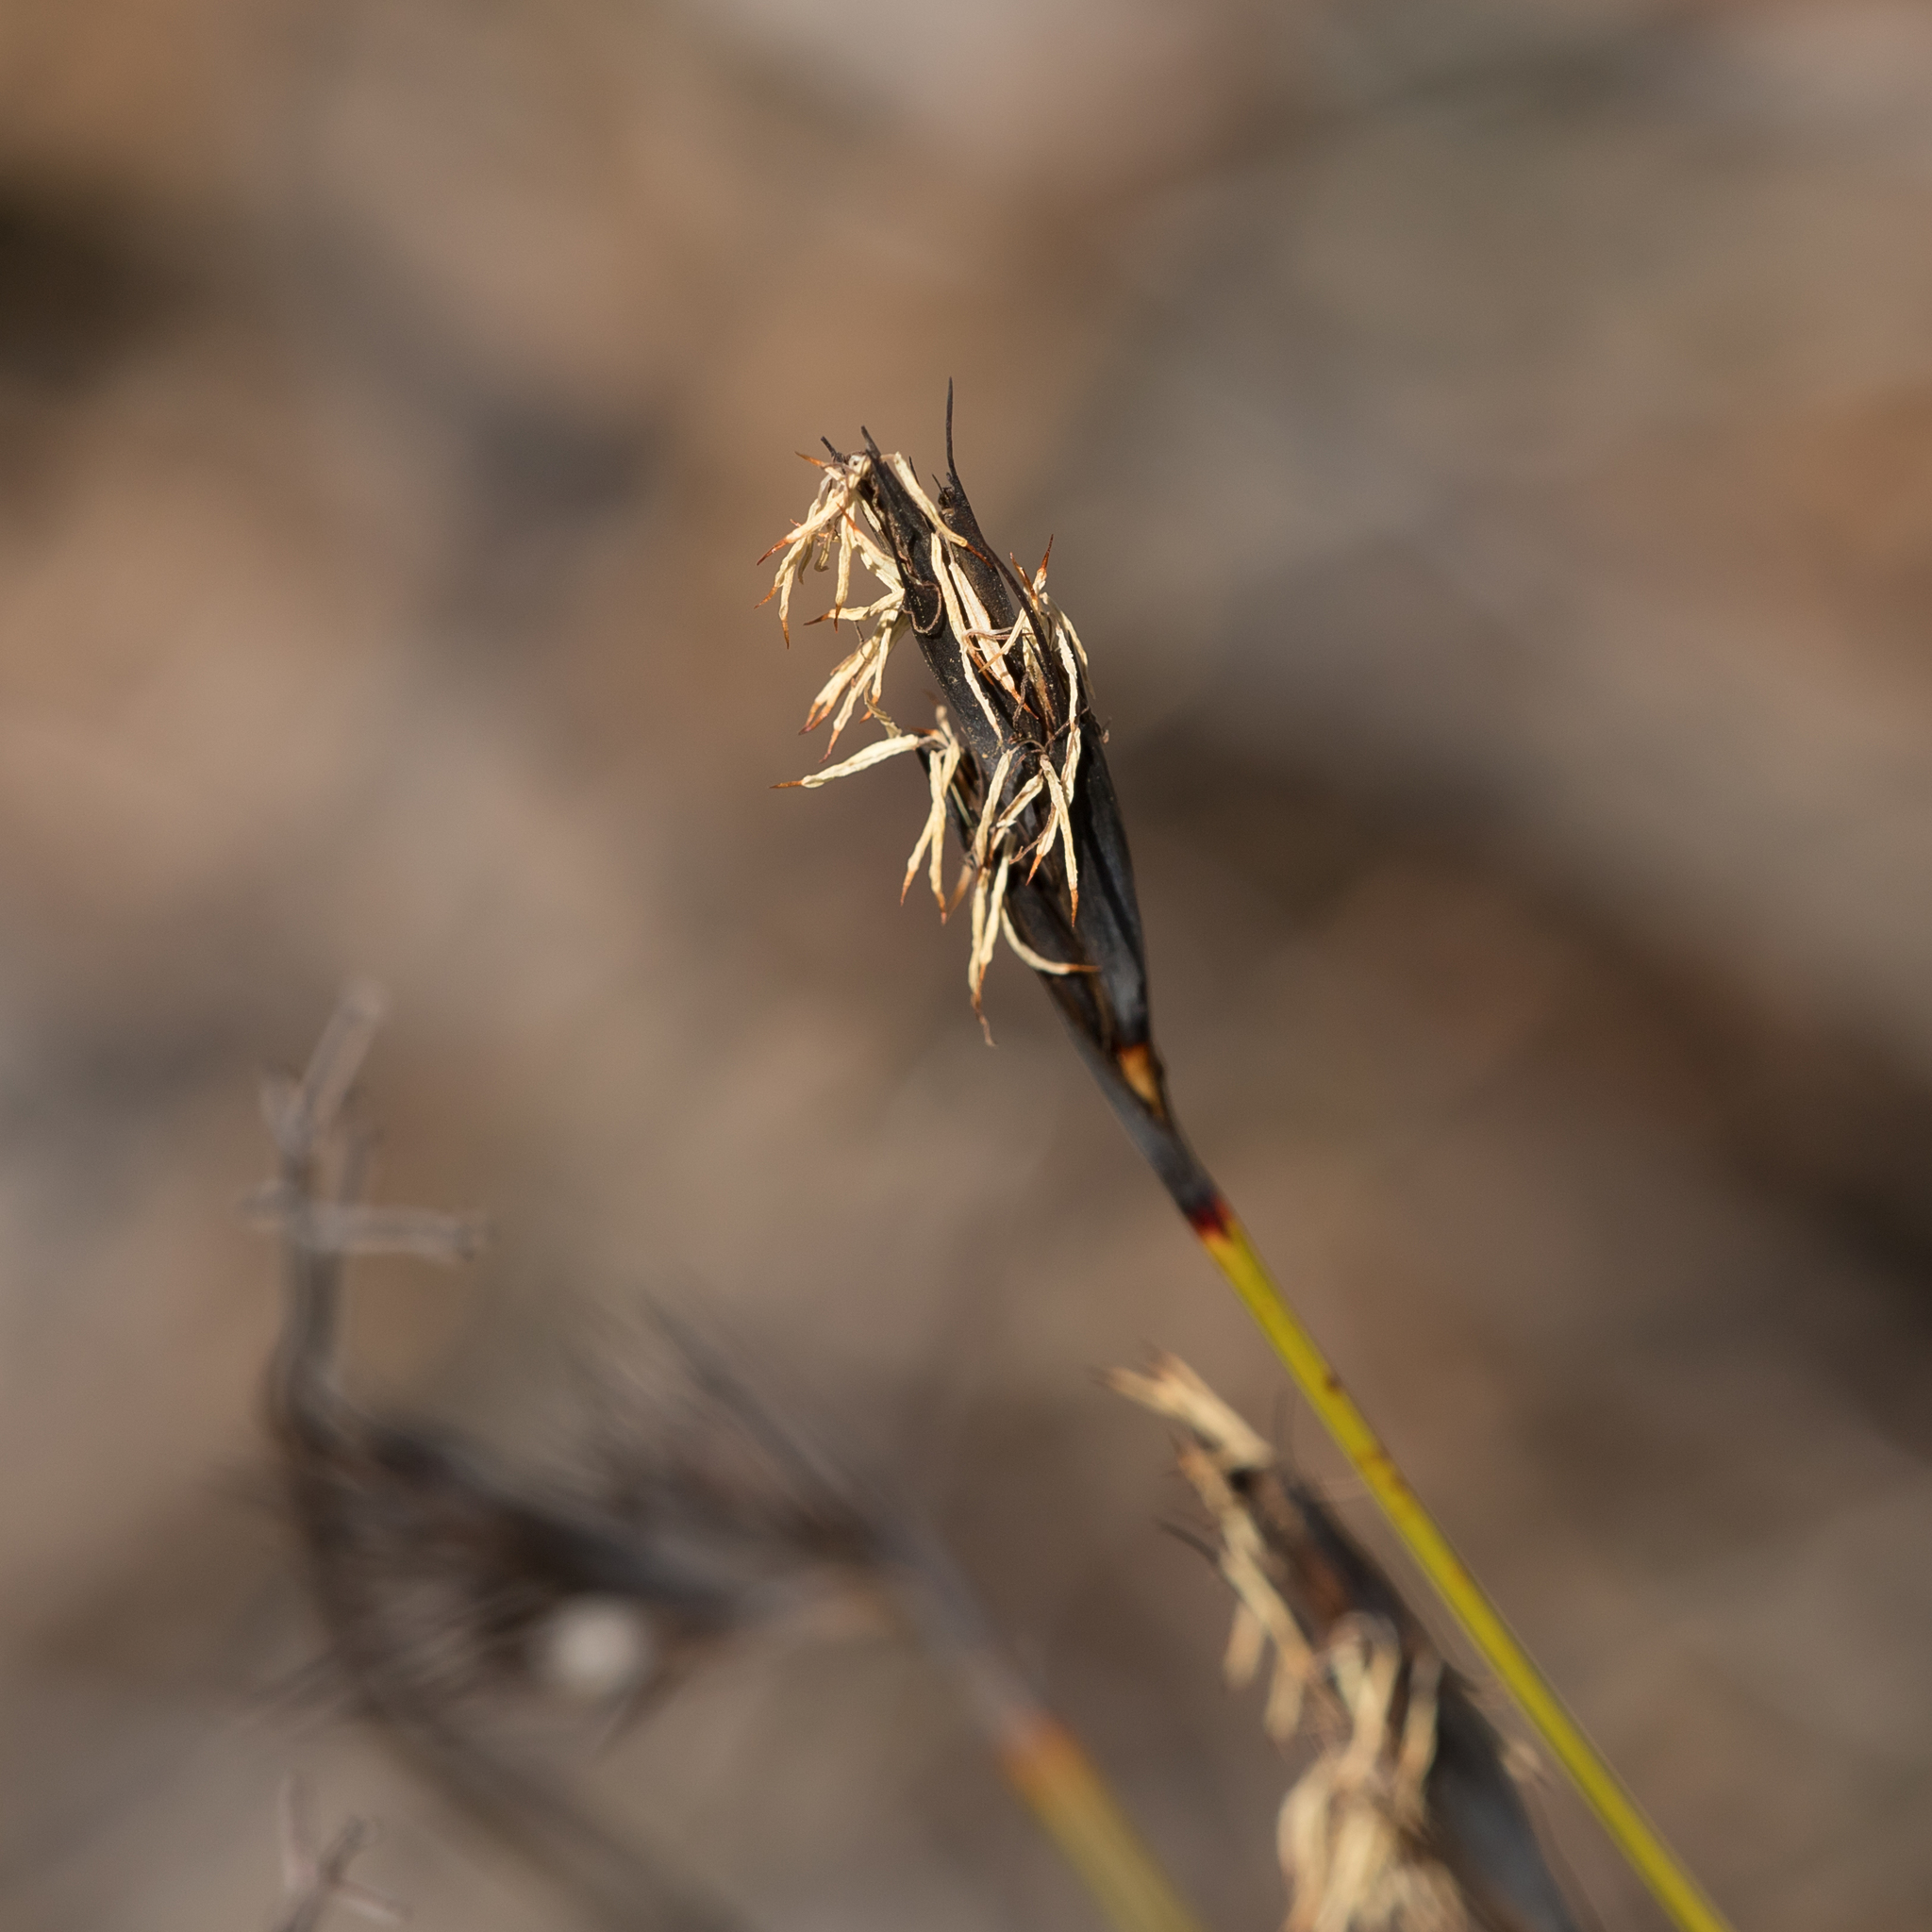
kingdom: Plantae
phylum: Tracheophyta
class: Liliopsida
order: Poales
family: Cyperaceae
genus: Lepidosperma
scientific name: Lepidosperma carphoides
